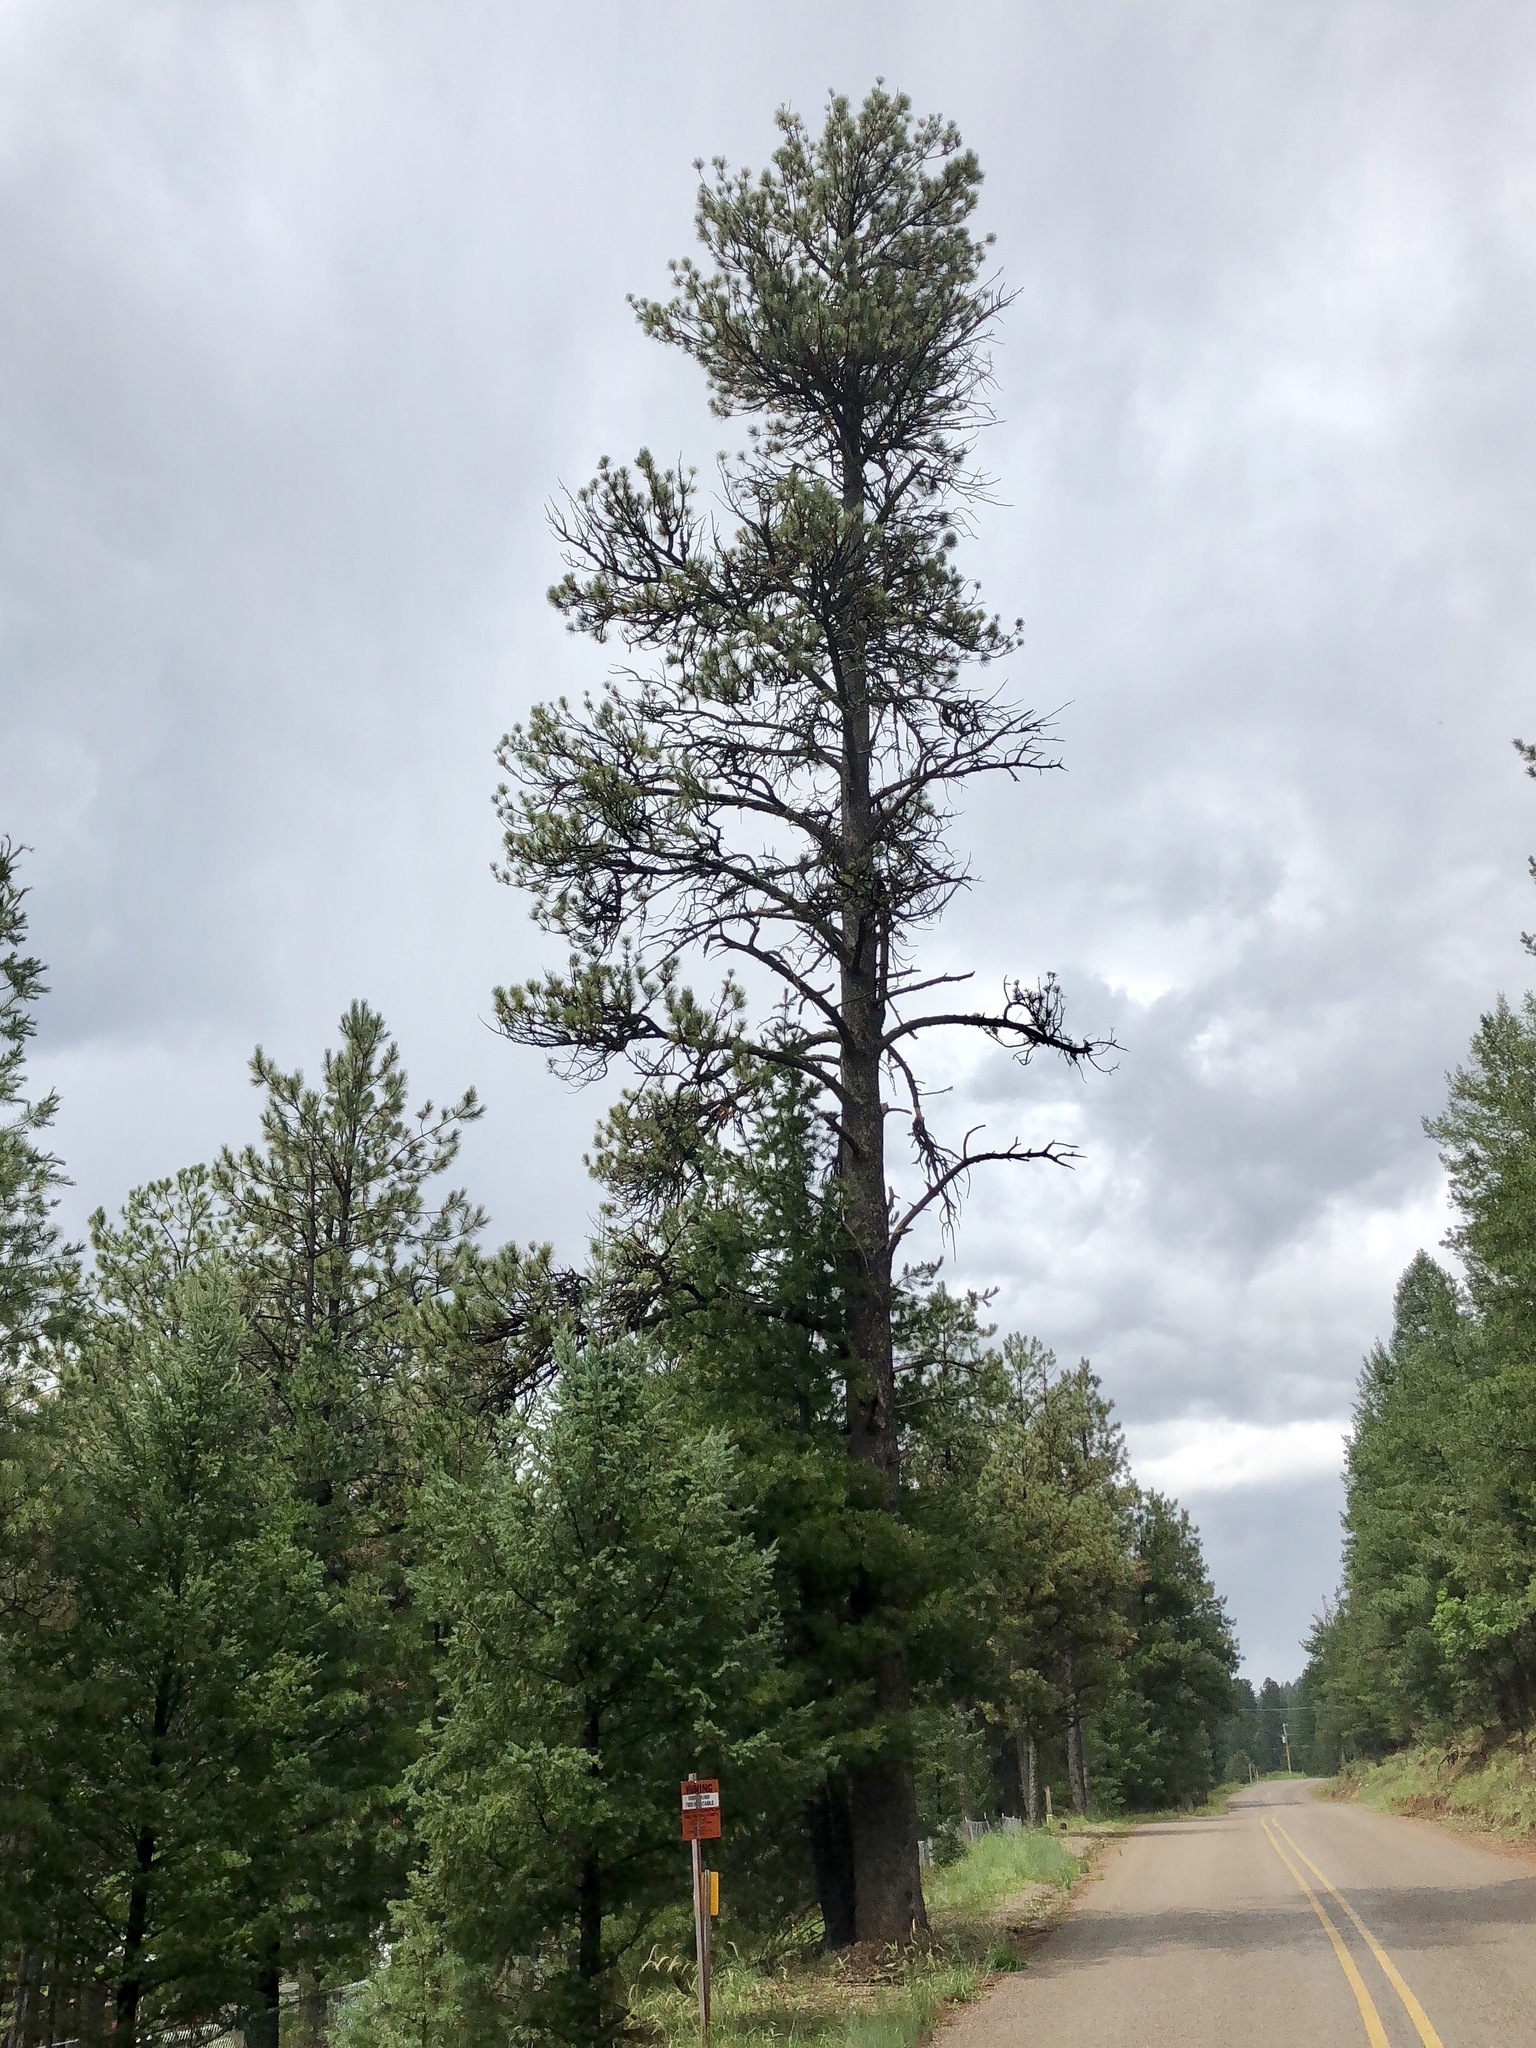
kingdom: Plantae
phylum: Tracheophyta
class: Pinopsida
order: Pinales
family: Pinaceae
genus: Pinus
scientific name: Pinus strobiformis
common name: Southwestern white pine
